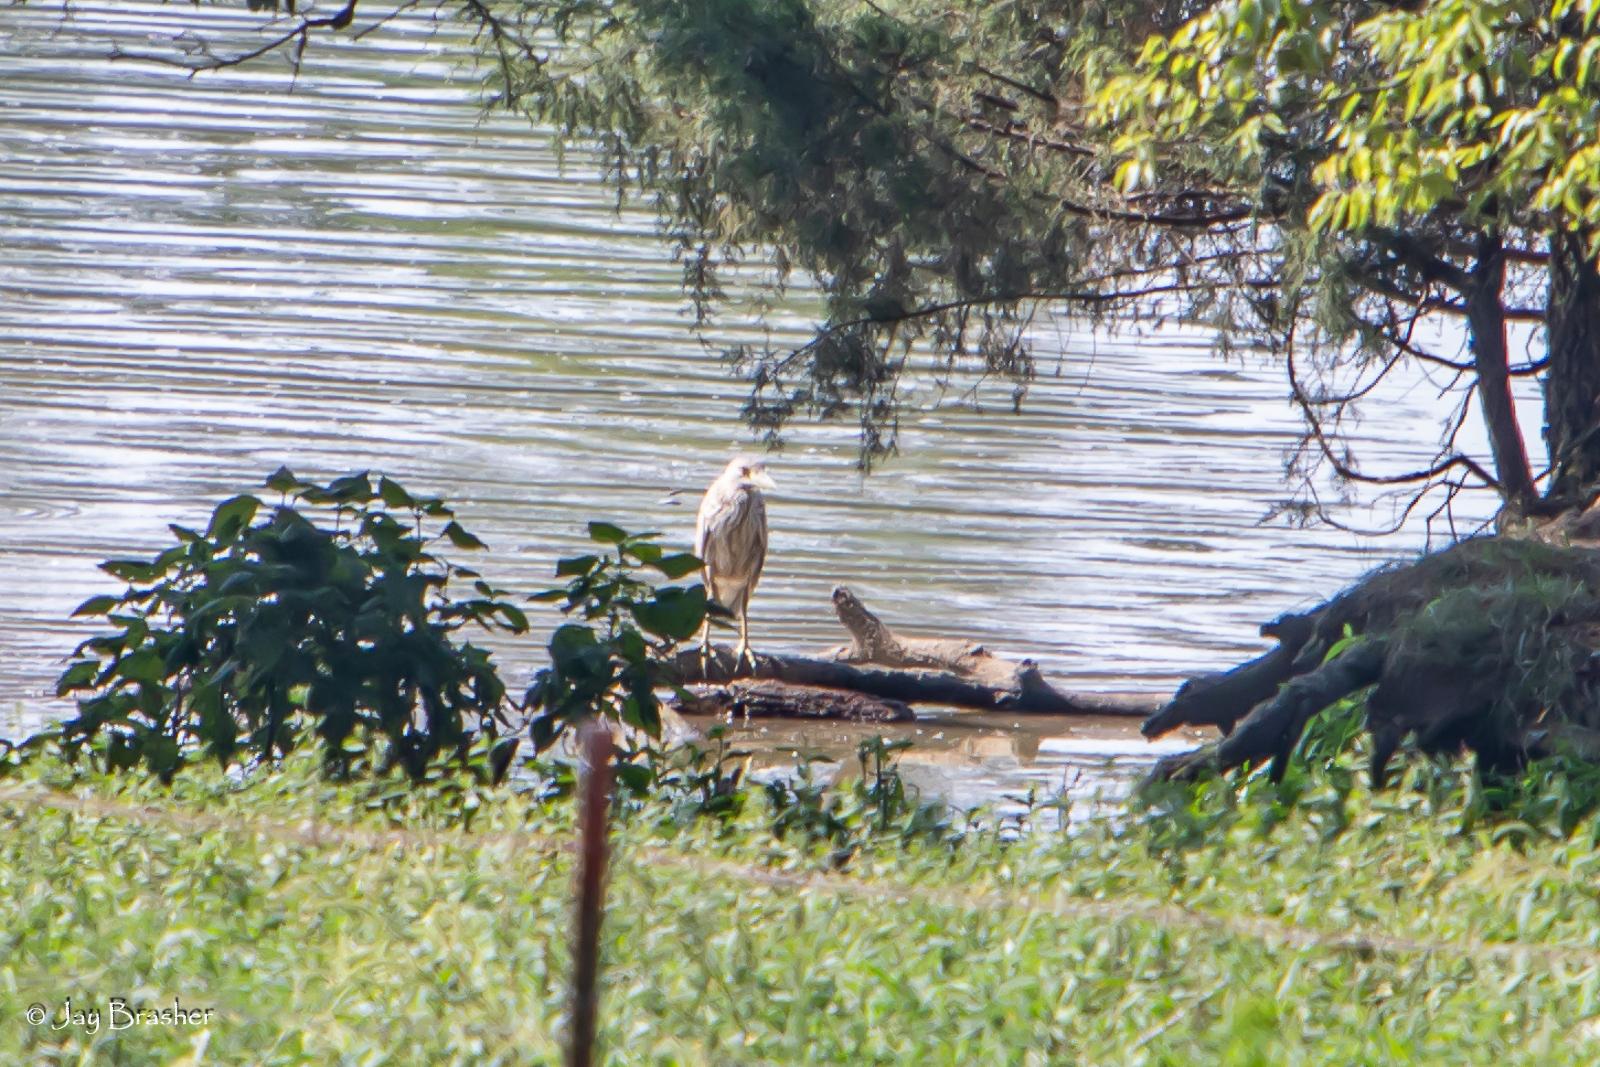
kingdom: Animalia
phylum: Chordata
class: Aves
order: Pelecaniformes
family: Ardeidae
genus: Nycticorax
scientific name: Nycticorax nycticorax
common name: Black-crowned night heron
